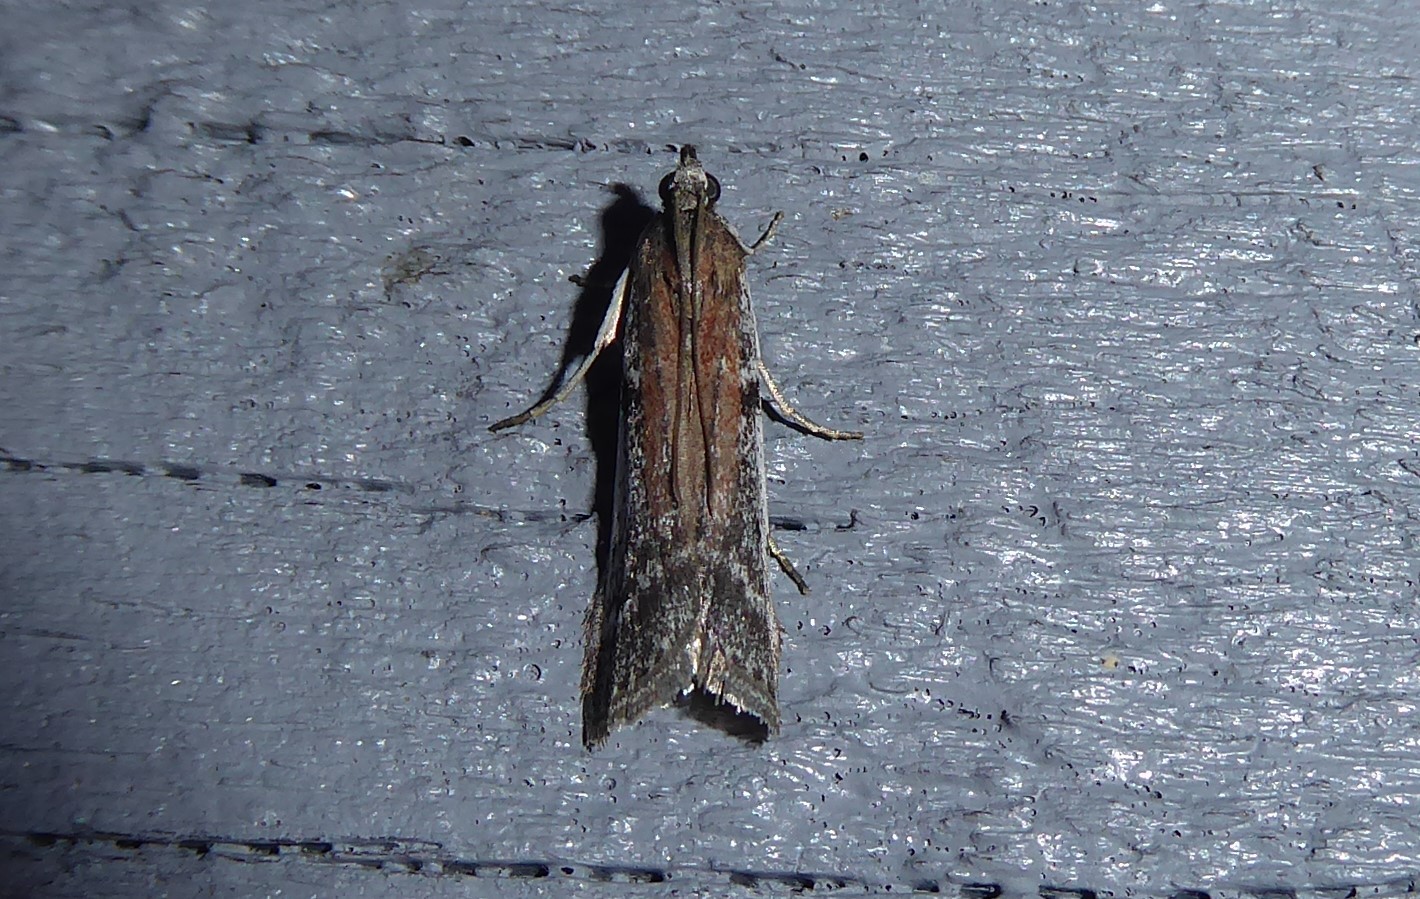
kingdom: Animalia
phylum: Arthropoda
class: Insecta
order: Lepidoptera
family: Pyralidae
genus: Patagoniodes
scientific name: Patagoniodes farinaria
